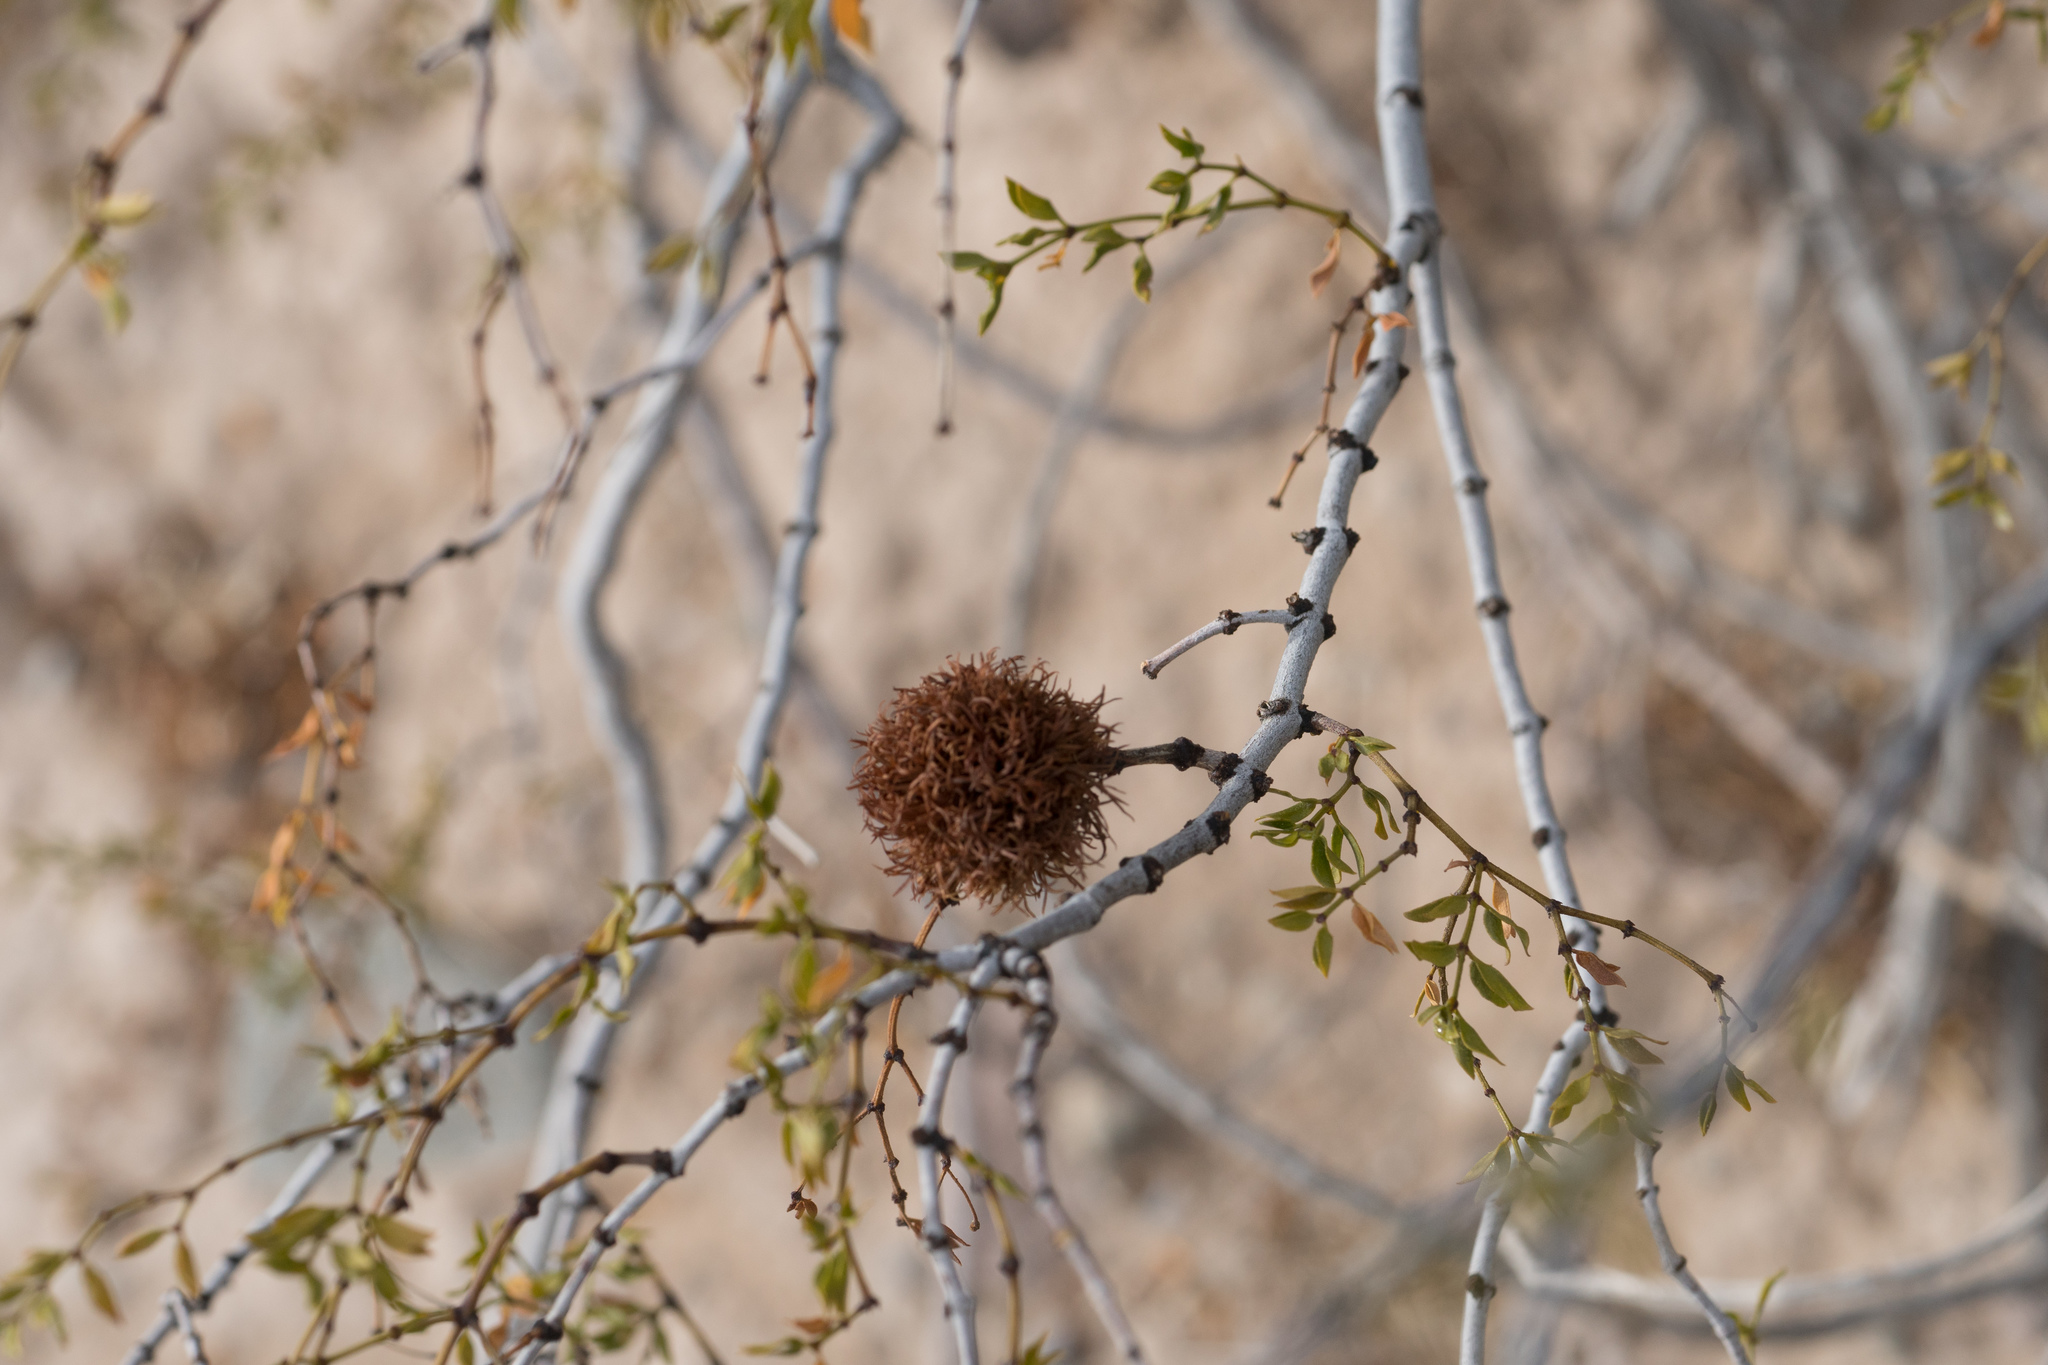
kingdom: Animalia
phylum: Arthropoda
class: Insecta
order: Diptera
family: Cecidomyiidae
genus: Asphondylia
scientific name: Asphondylia auripila
